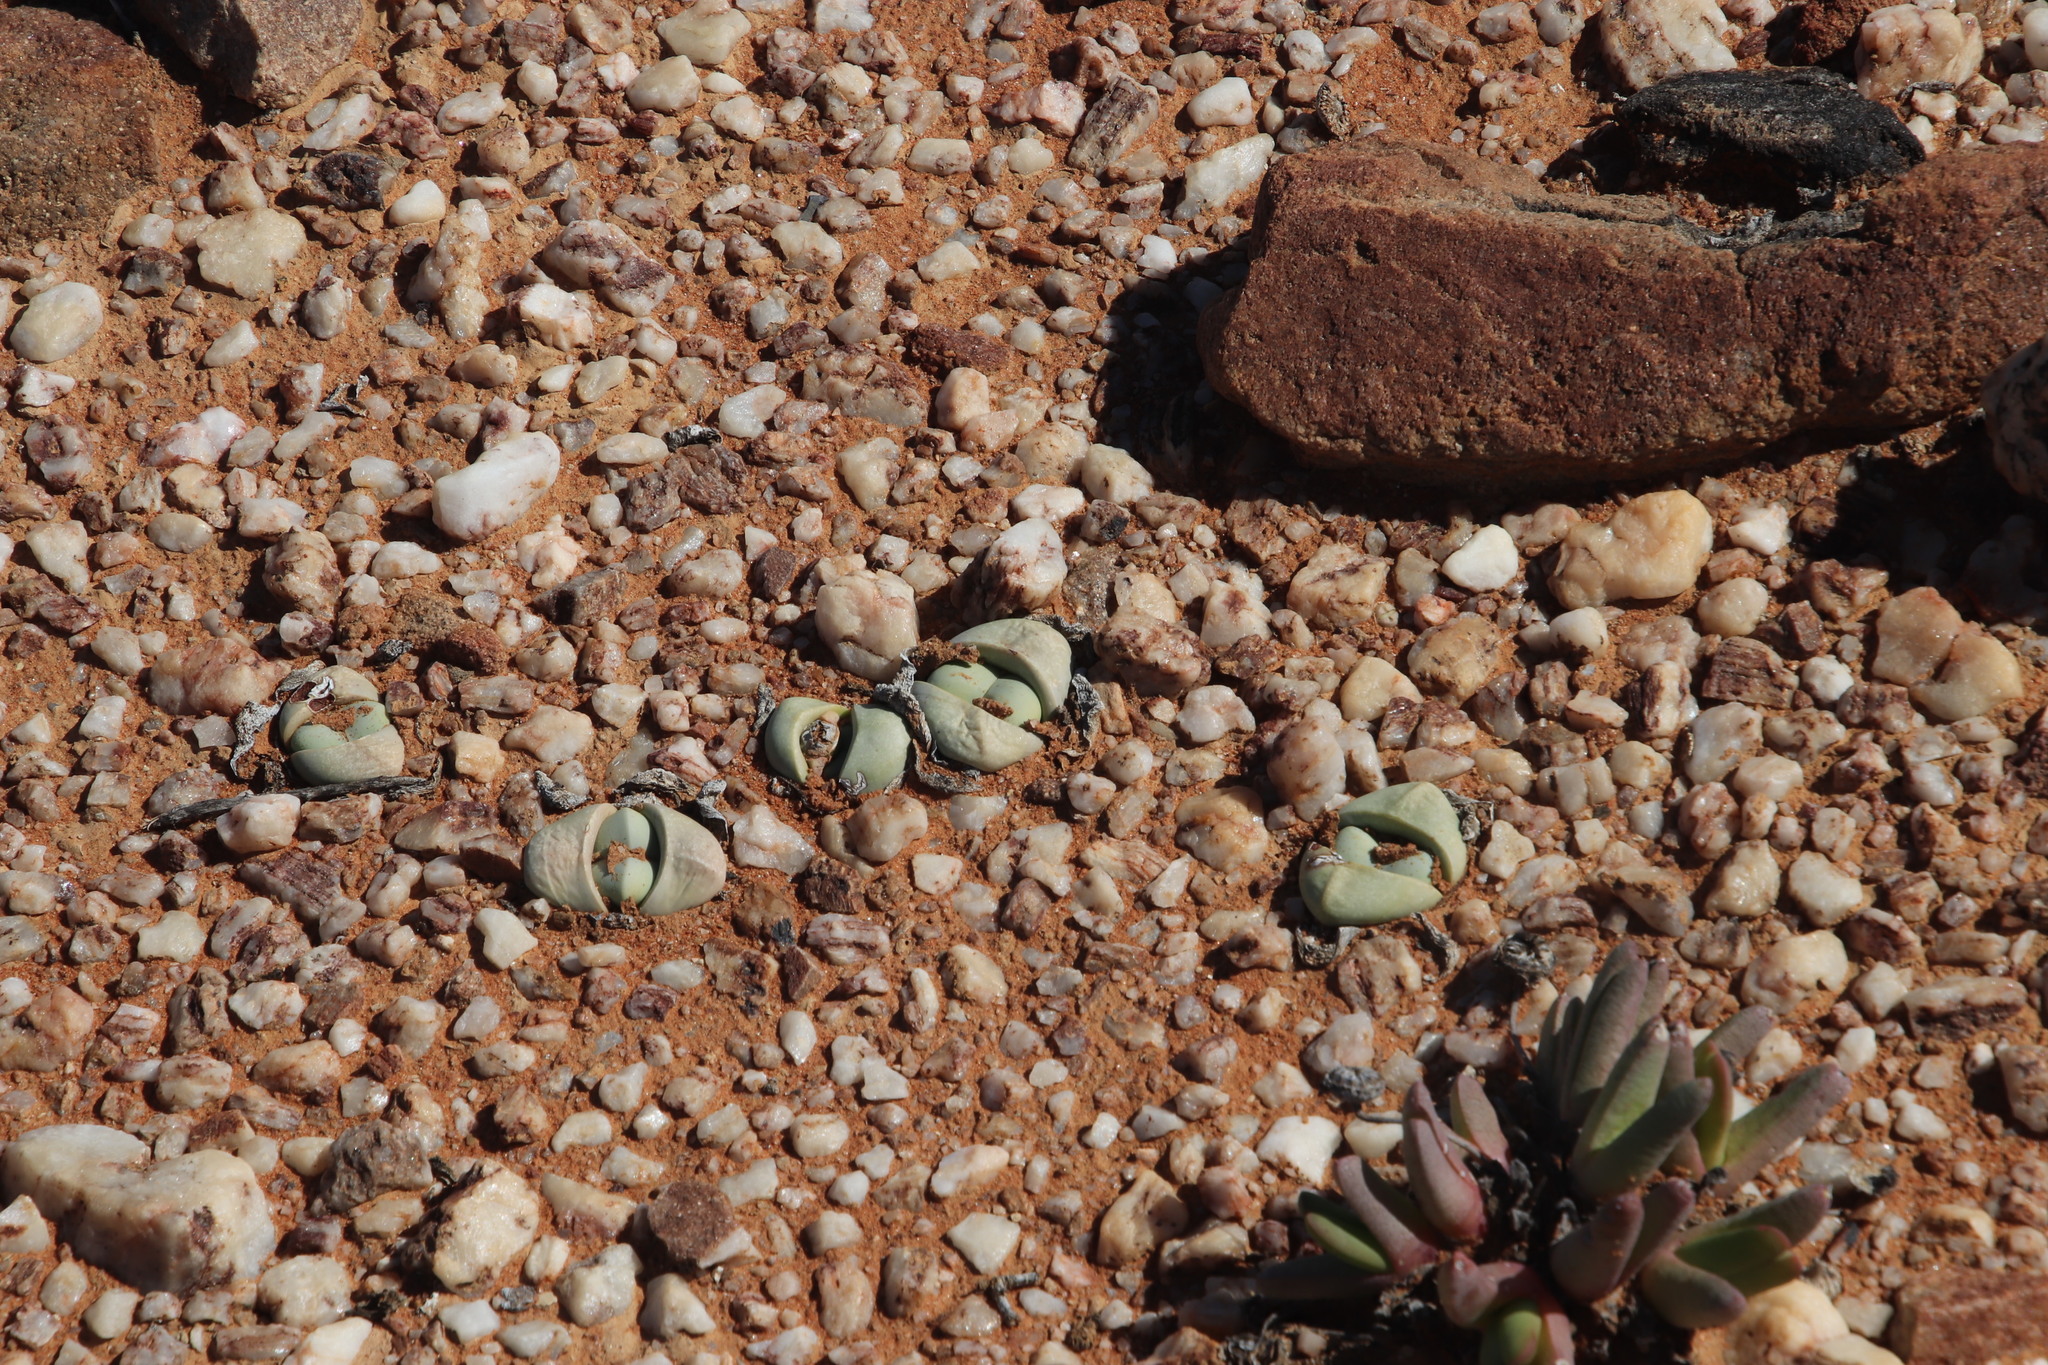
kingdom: Plantae
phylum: Tracheophyta
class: Magnoliopsida
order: Caryophyllales
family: Aizoaceae
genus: Argyroderma
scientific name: Argyroderma delaetii
